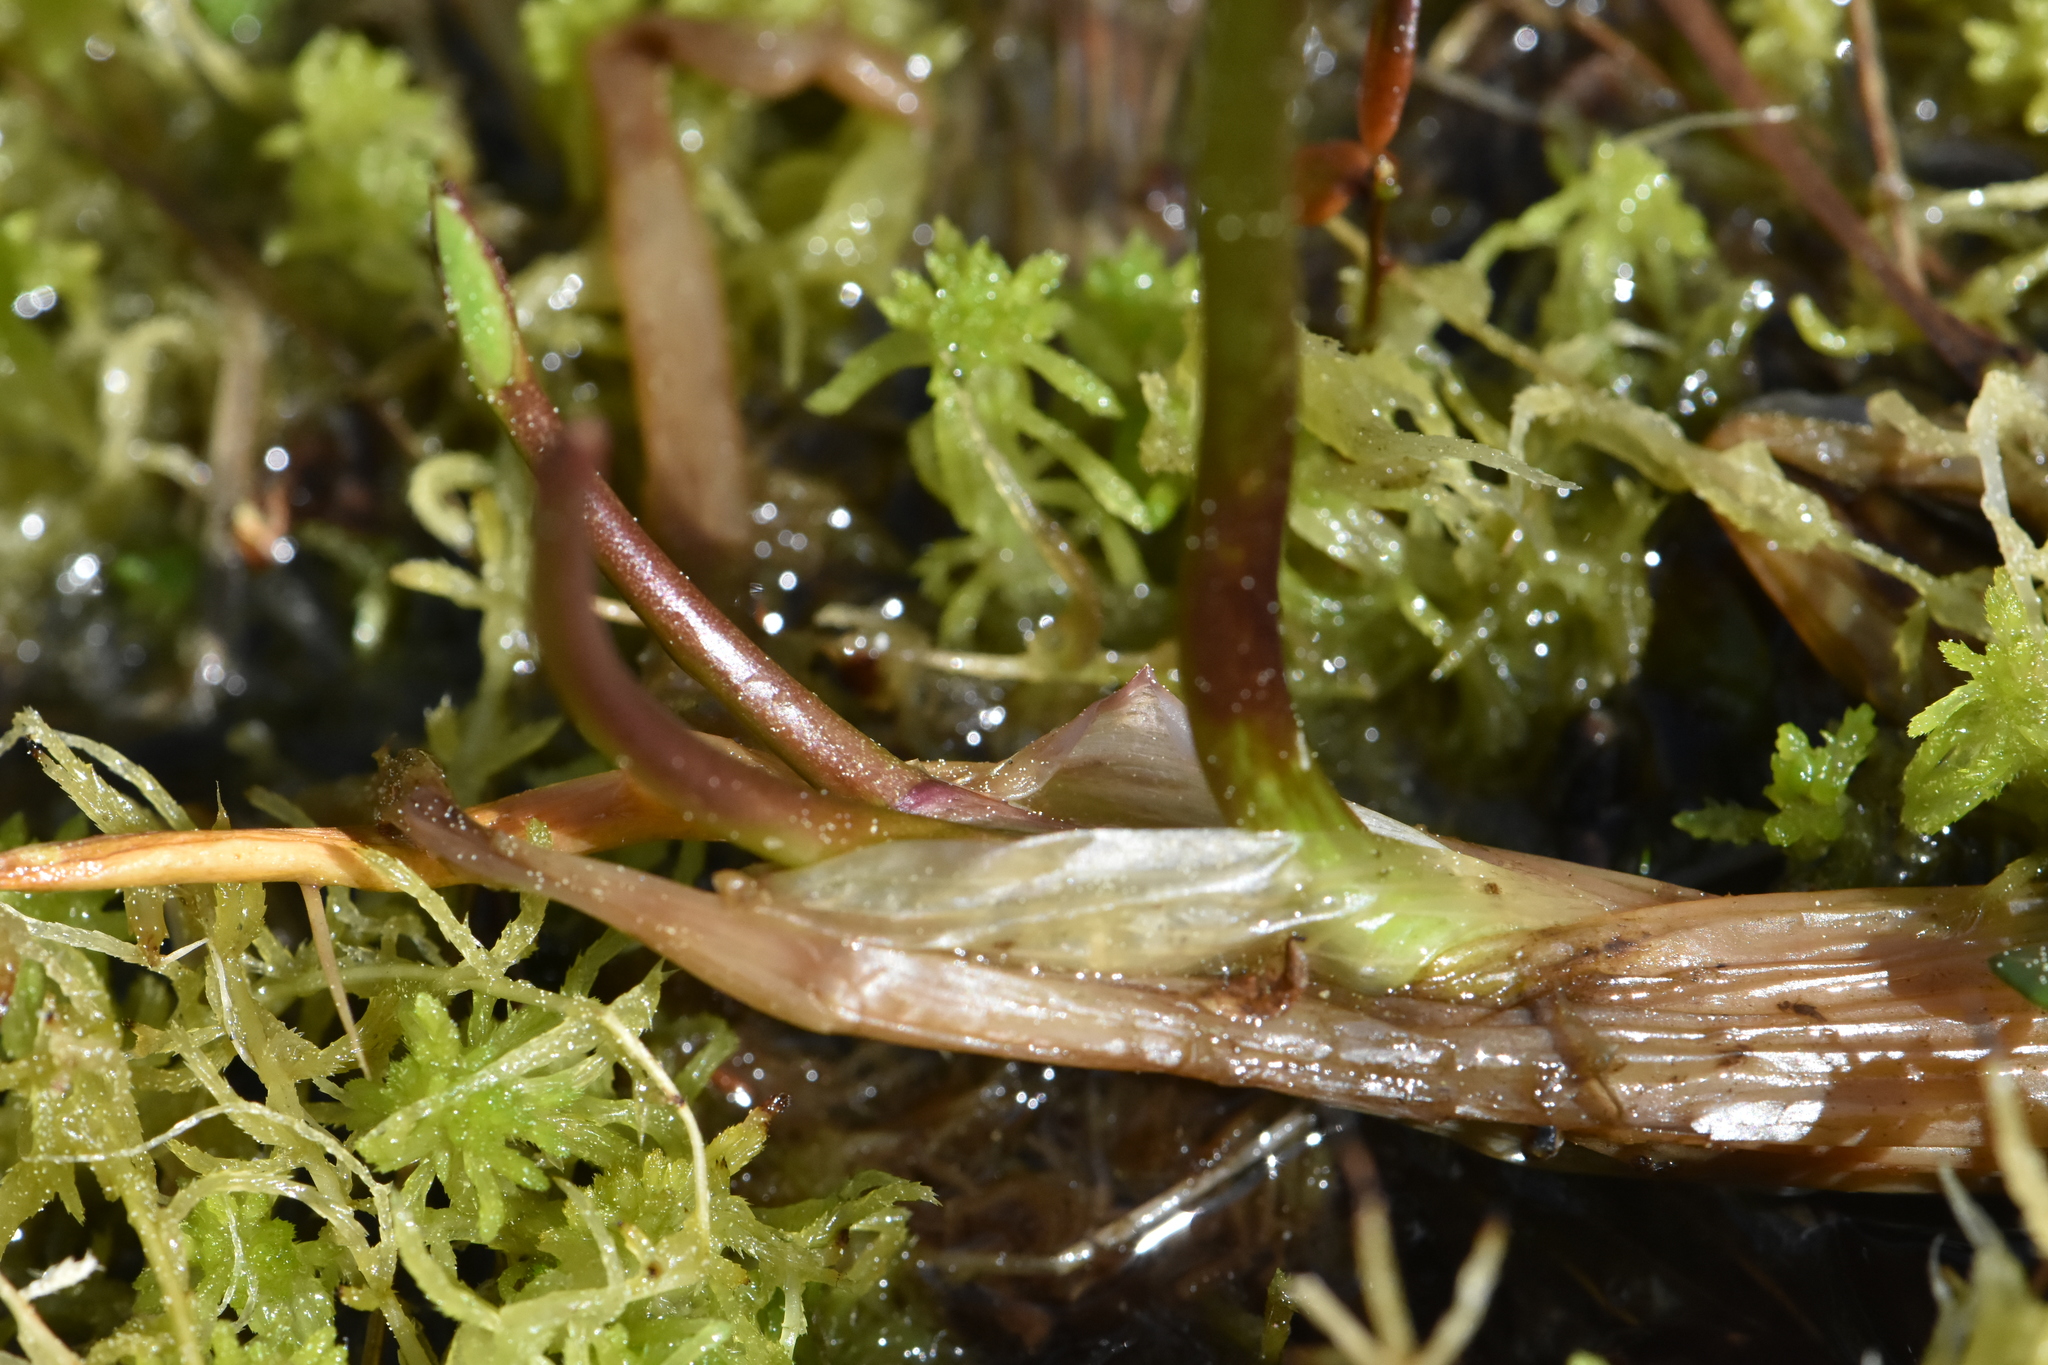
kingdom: Plantae
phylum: Tracheophyta
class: Magnoliopsida
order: Asterales
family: Menyanthaceae
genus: Menyanthes
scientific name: Menyanthes trifoliata
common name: Bogbean
